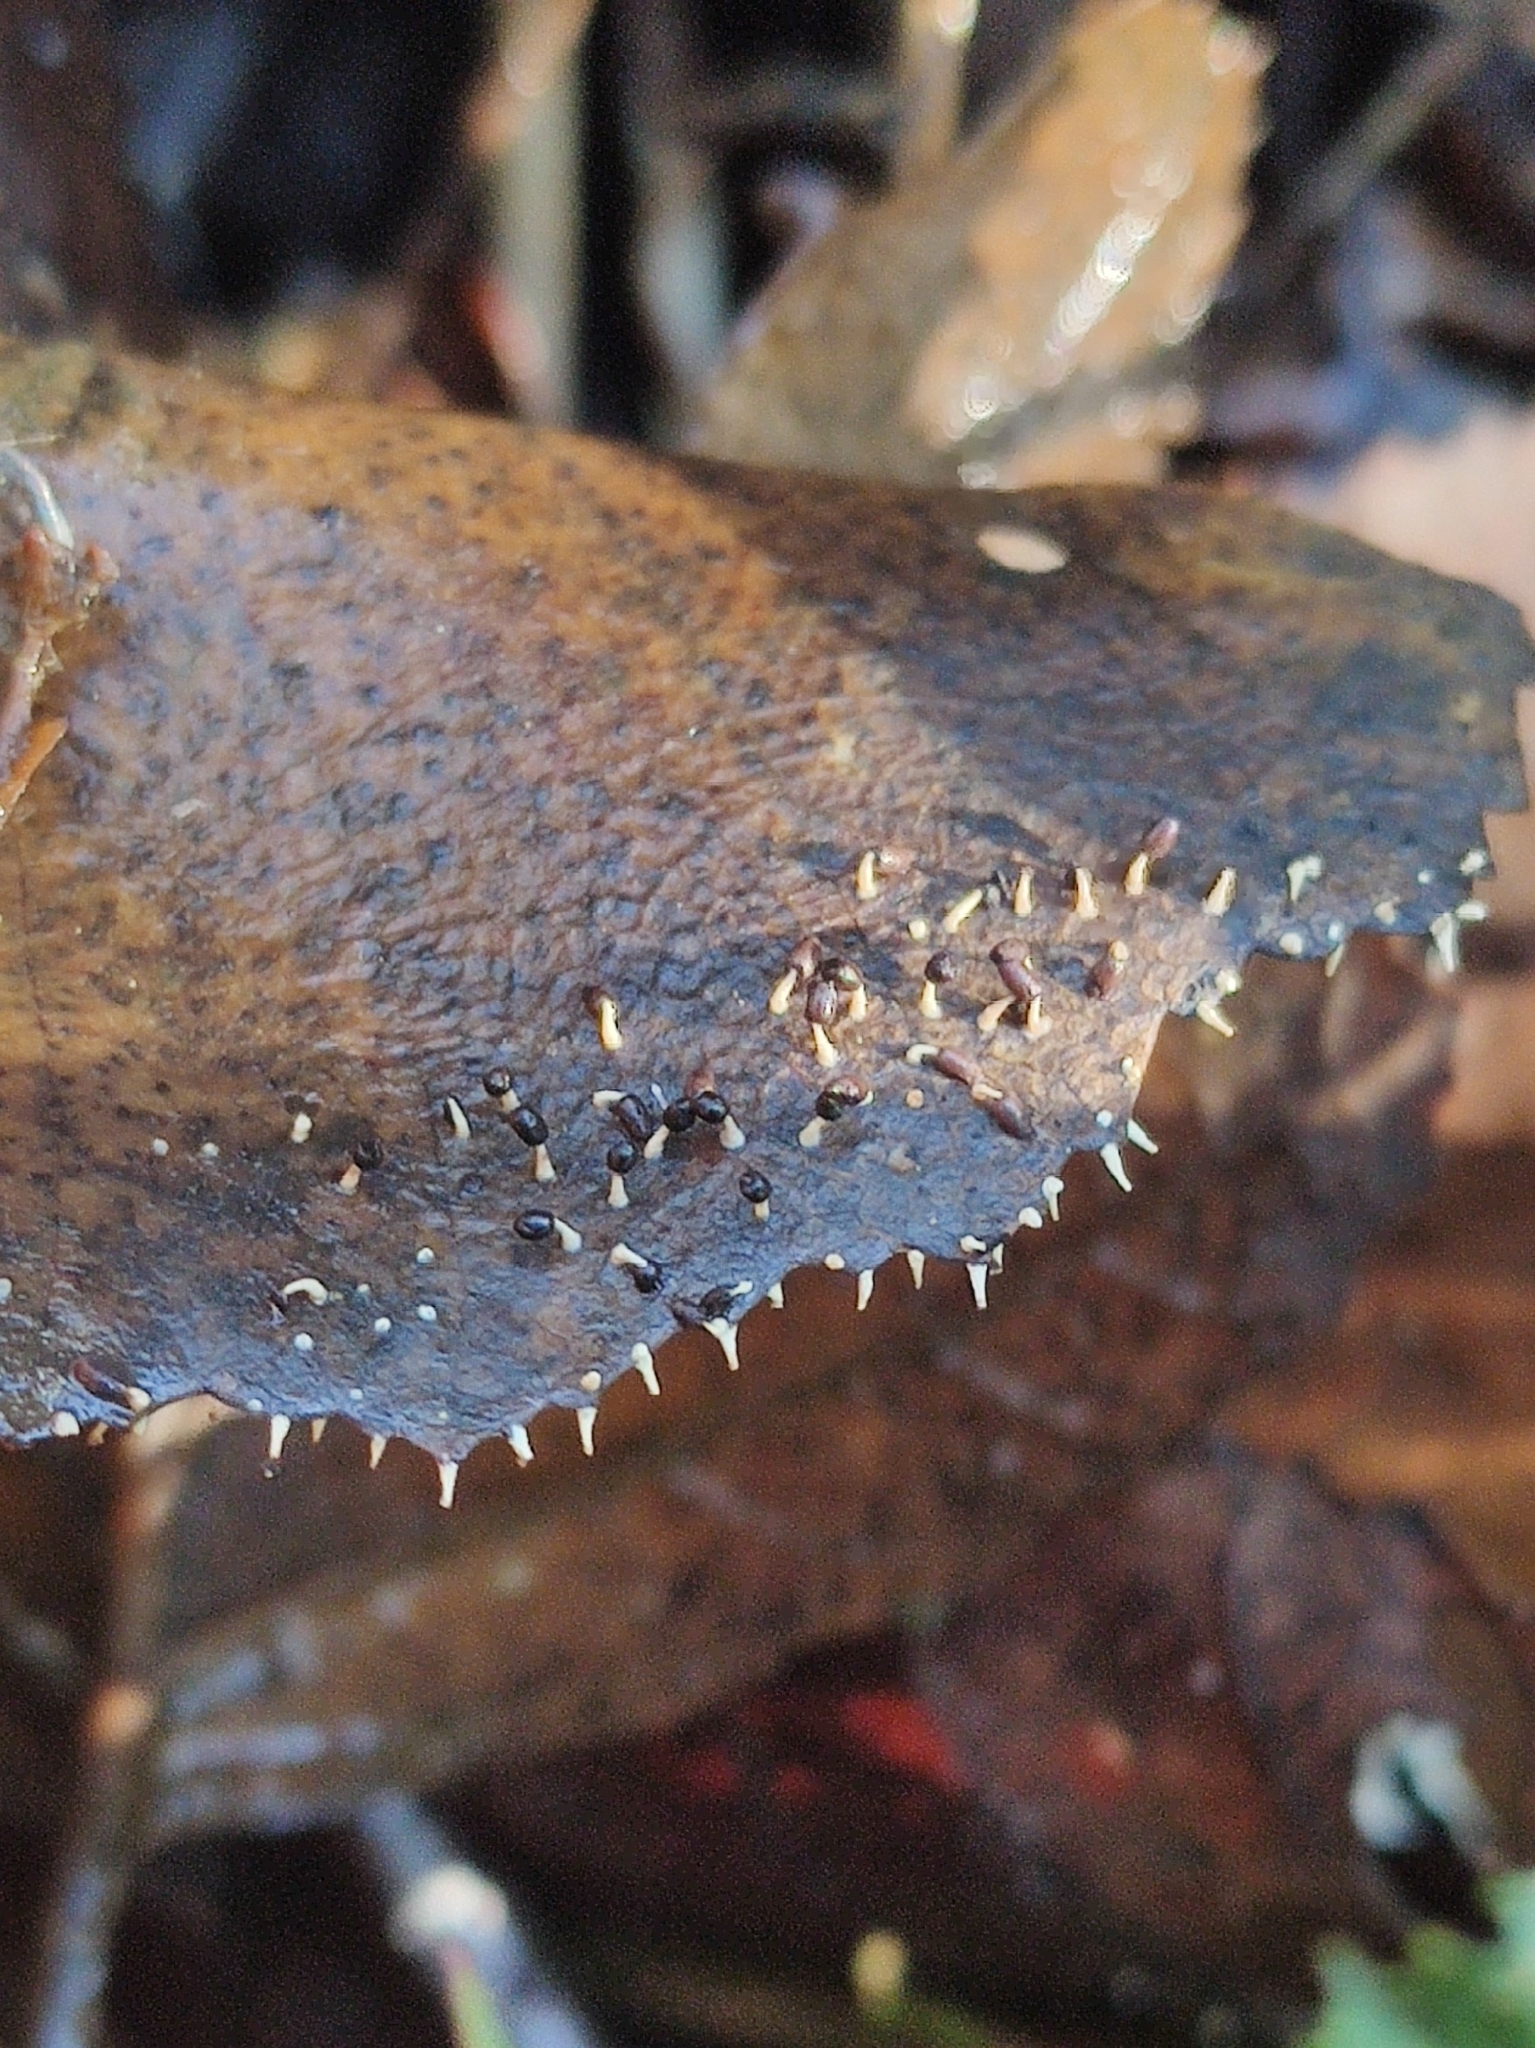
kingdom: Protozoa
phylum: Mycetozoa
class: Myxomycetes
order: Physarales
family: Didymiaceae
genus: Diachea
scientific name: Diachea leucopodia
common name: White-footed slime
